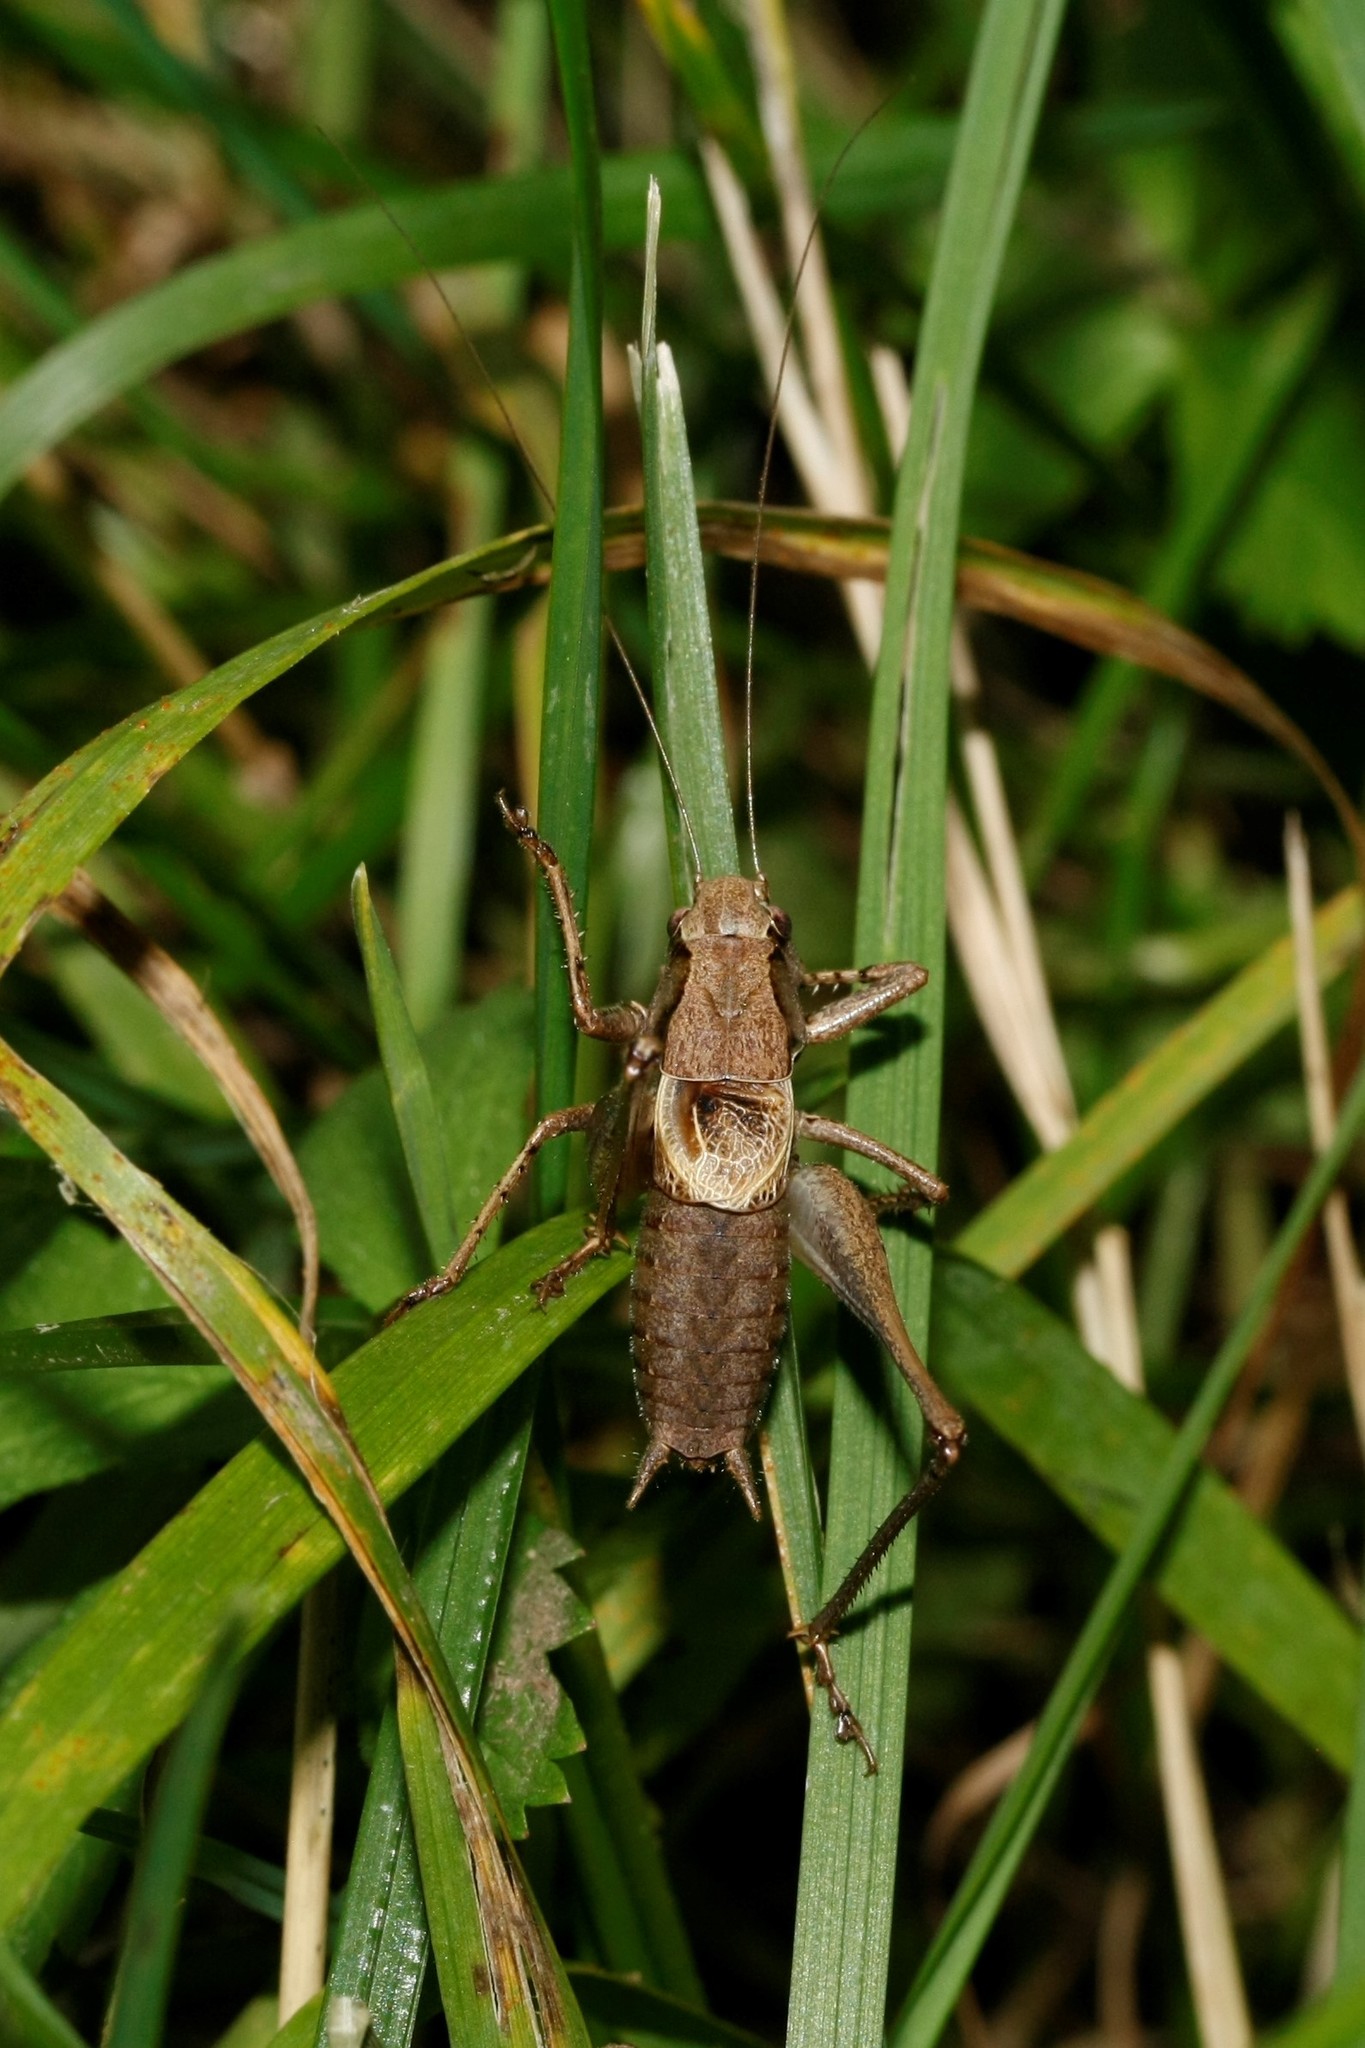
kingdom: Animalia
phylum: Arthropoda
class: Insecta
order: Orthoptera
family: Tettigoniidae
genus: Pholidoptera
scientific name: Pholidoptera griseoaptera
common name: Dark bush-cricket
